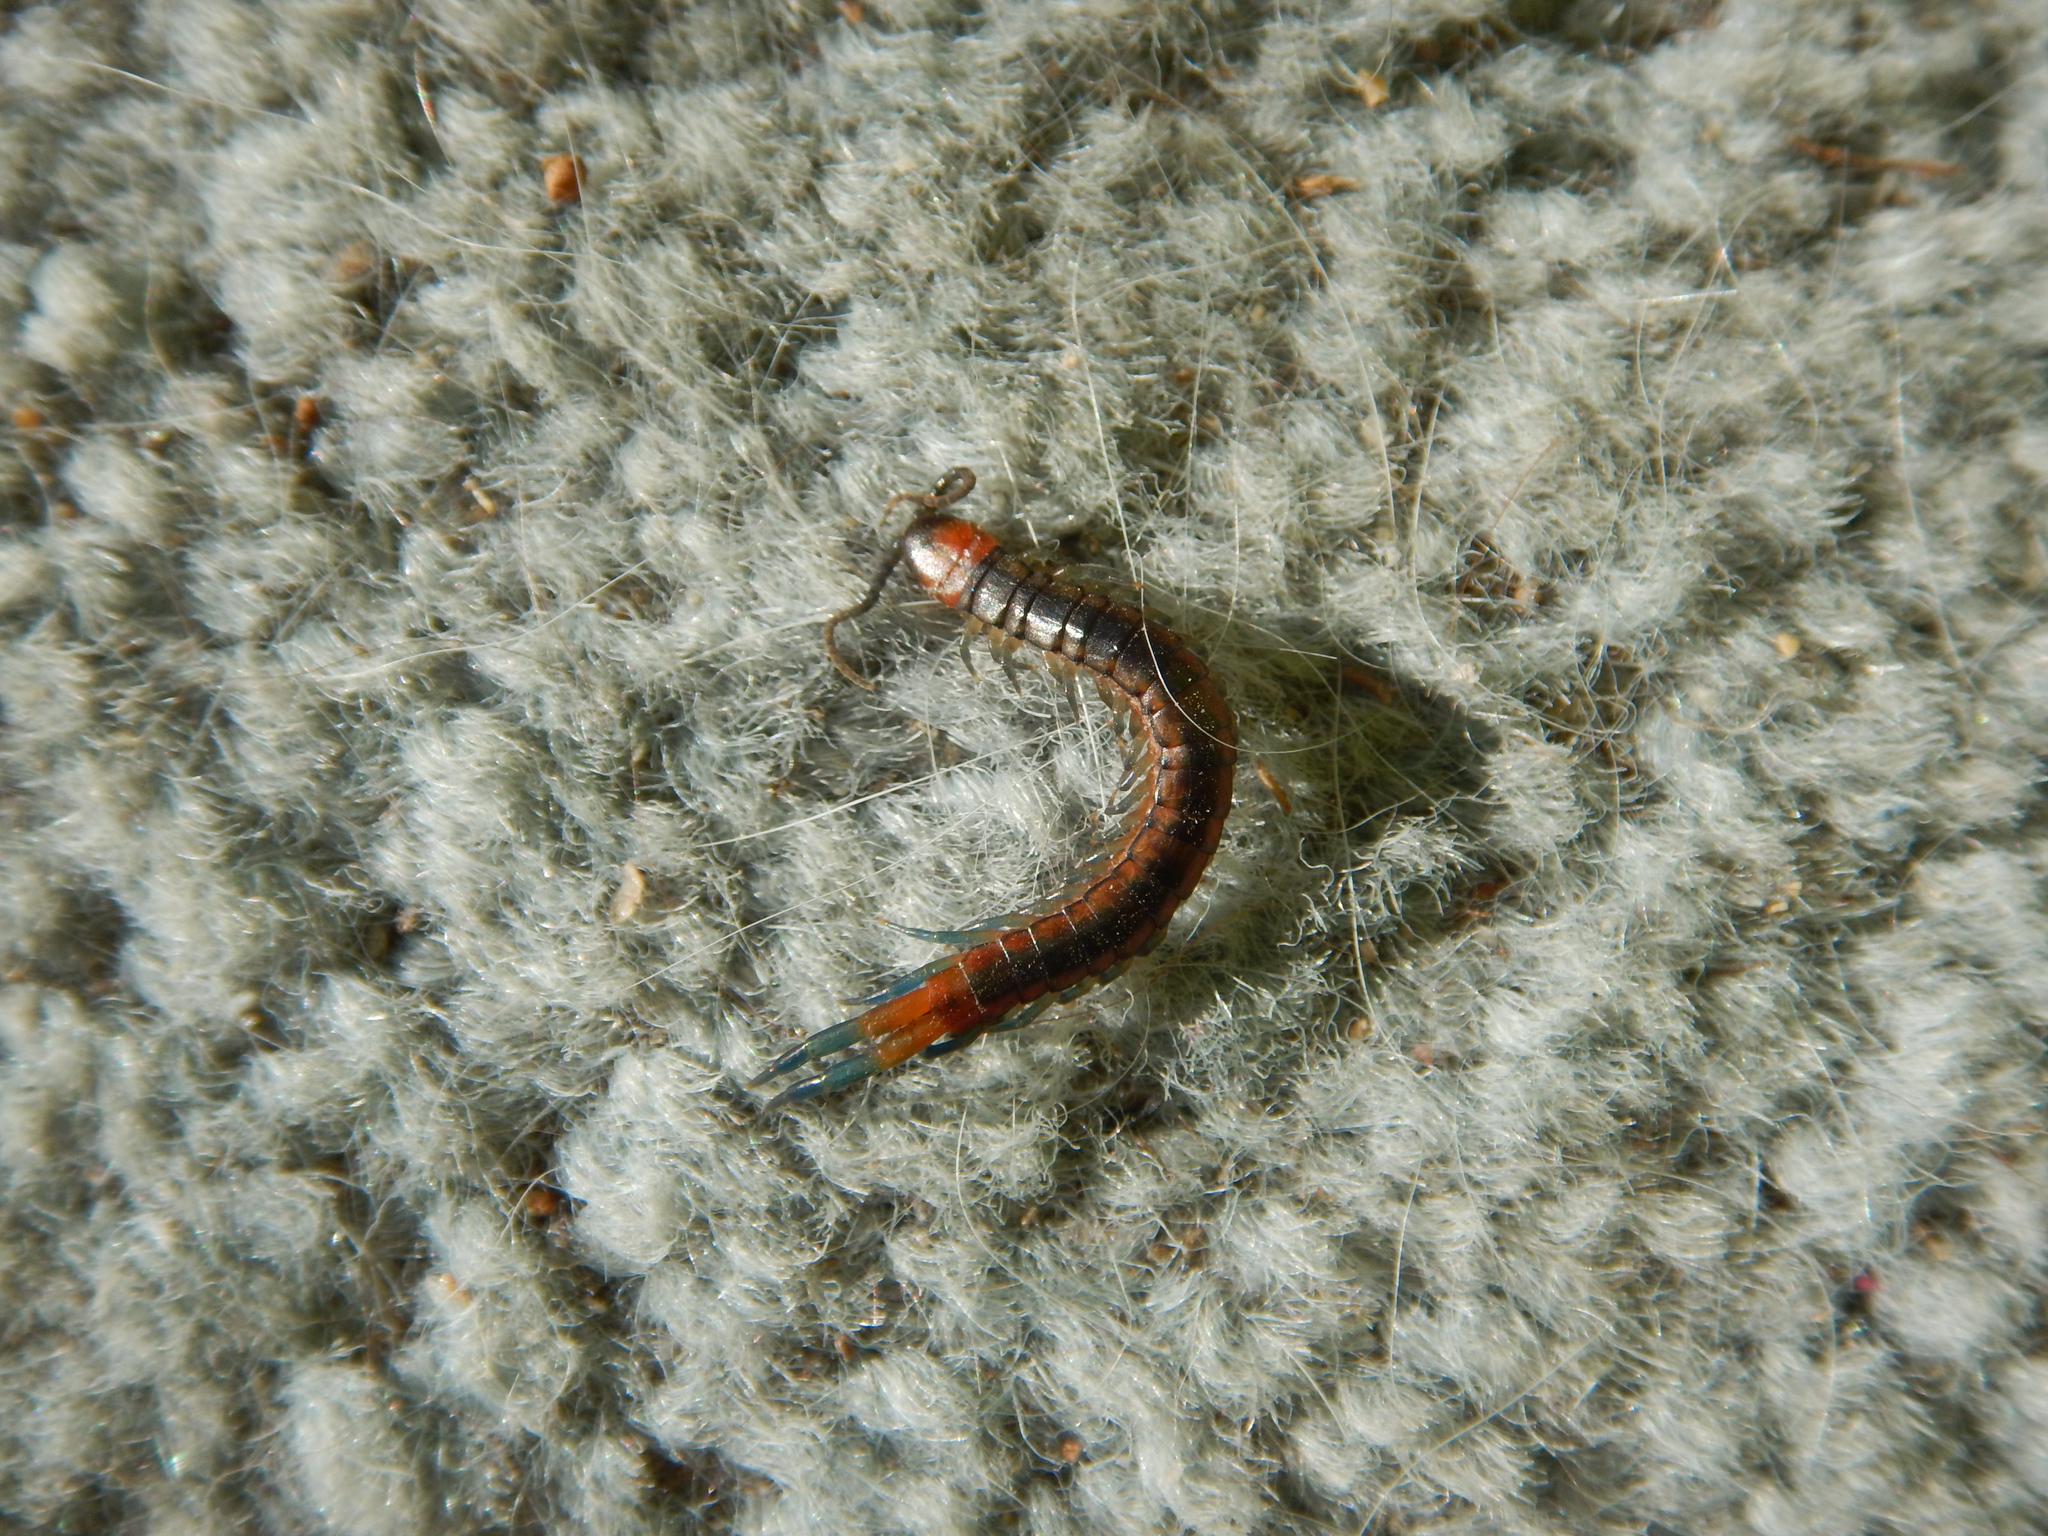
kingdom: Animalia
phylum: Arthropoda
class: Chilopoda
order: Scolopendromorpha
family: Scolopendridae
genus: Scolopendra
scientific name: Scolopendra cingulata
